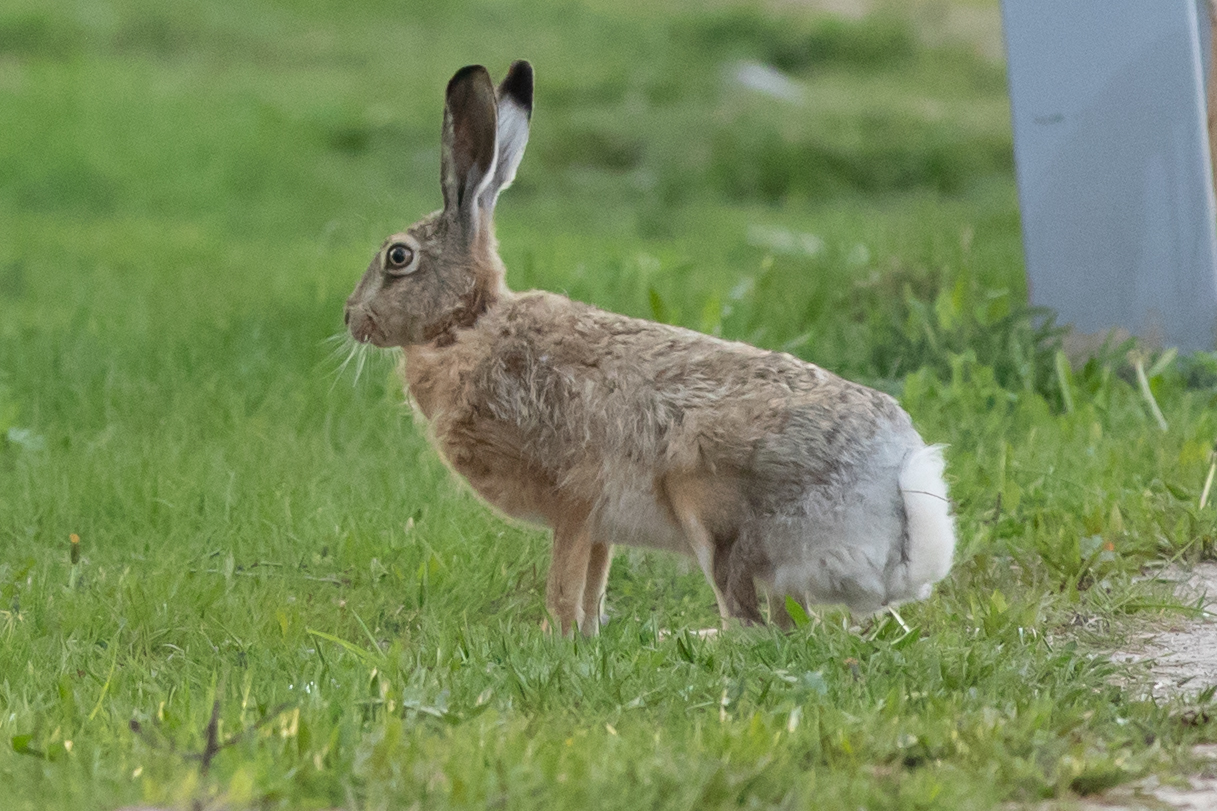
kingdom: Animalia
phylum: Chordata
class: Mammalia
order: Lagomorpha
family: Leporidae
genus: Lepus
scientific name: Lepus europaeus
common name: European hare
